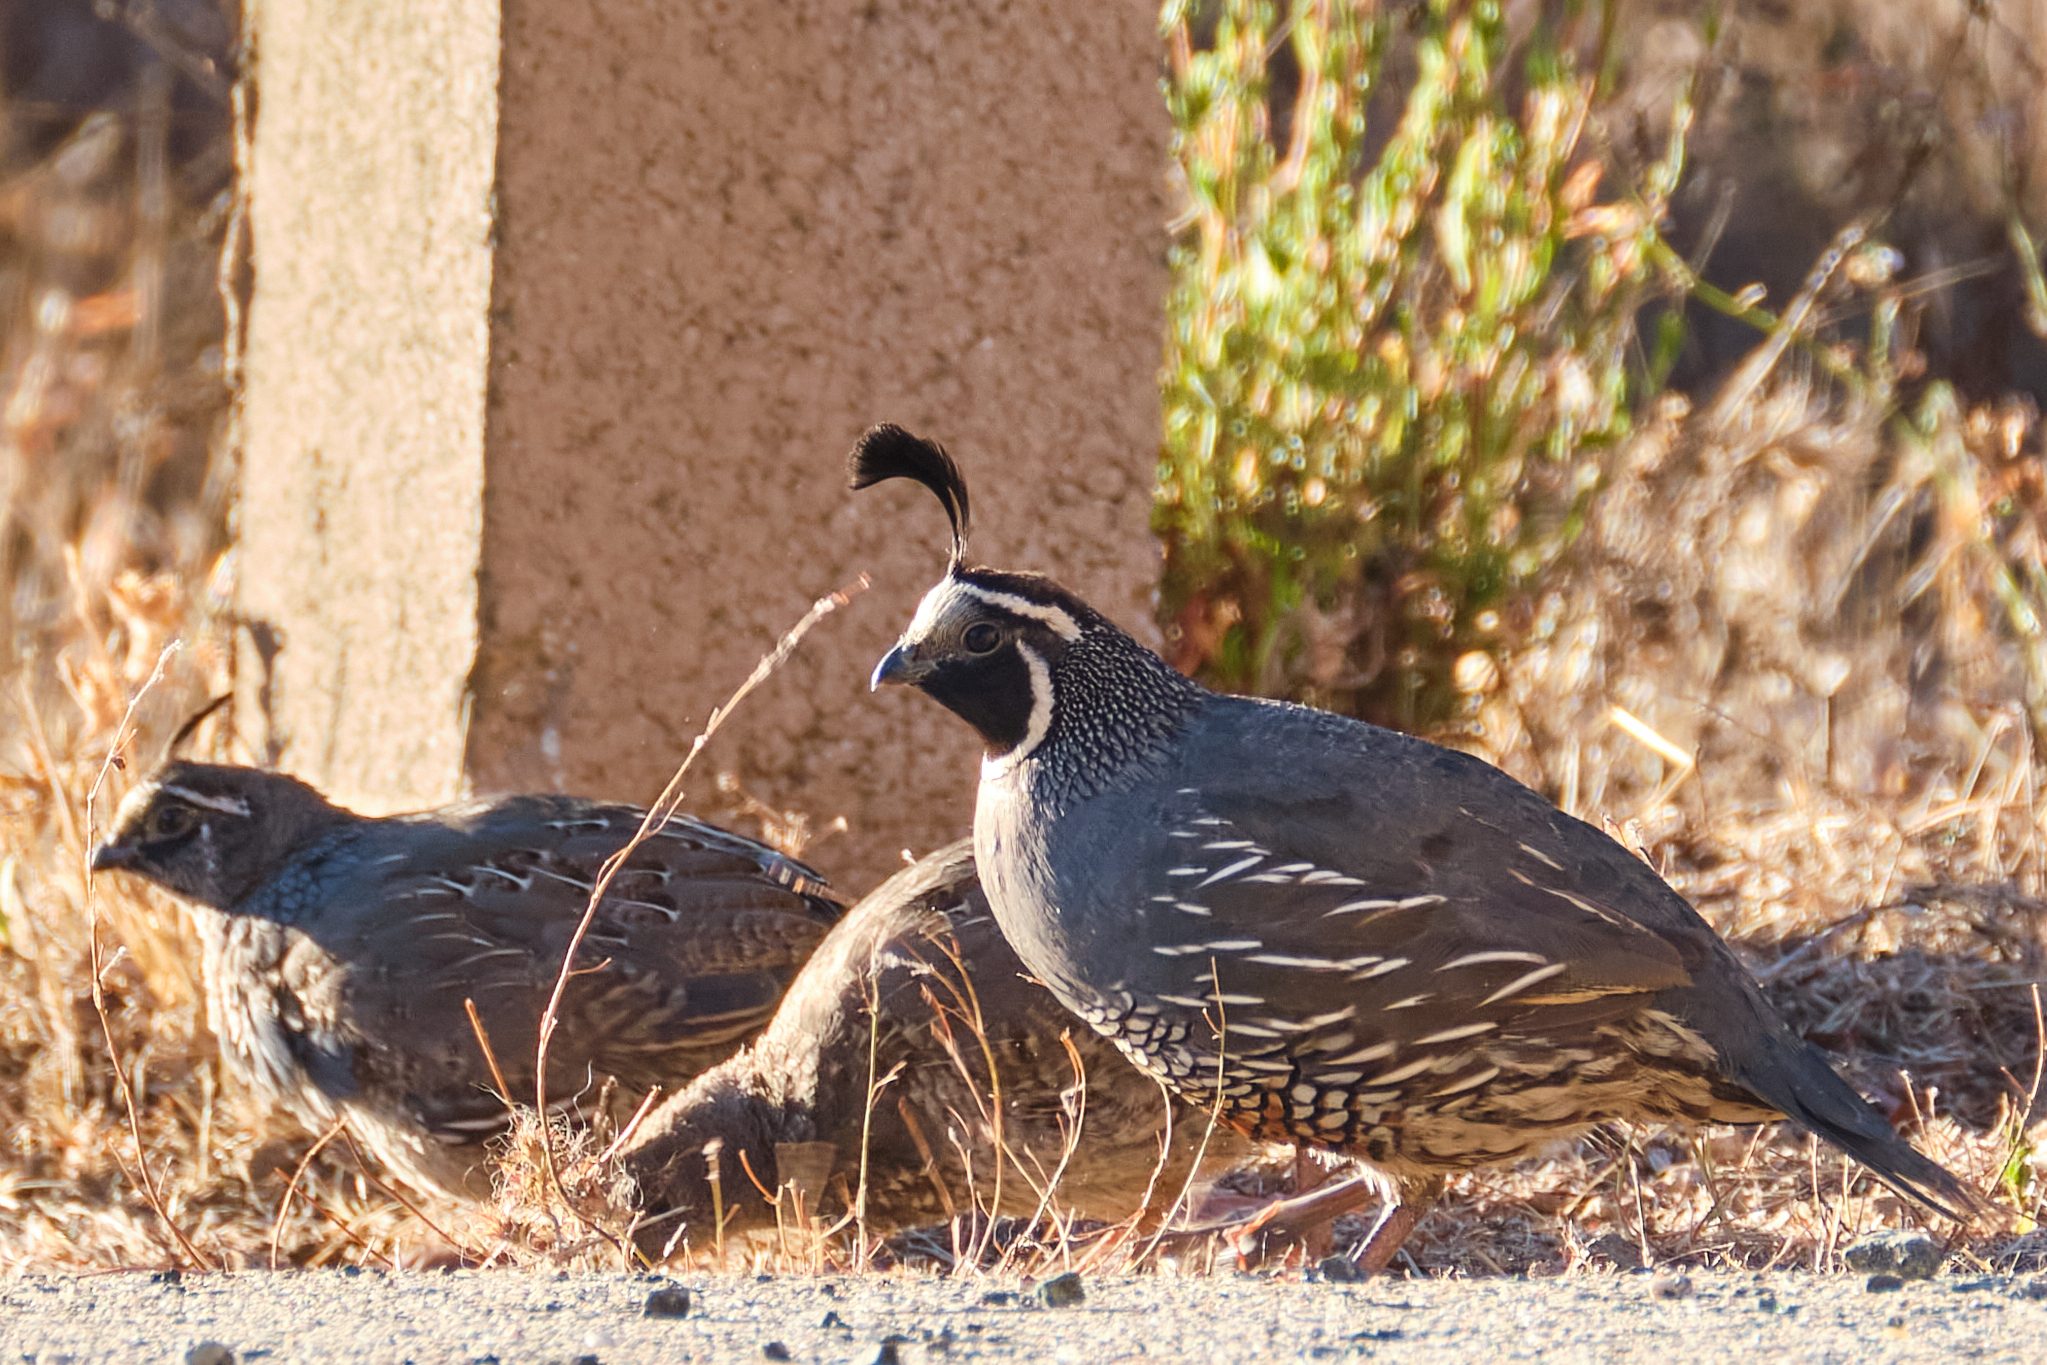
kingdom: Animalia
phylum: Chordata
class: Aves
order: Galliformes
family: Odontophoridae
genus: Callipepla
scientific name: Callipepla californica
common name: California quail
